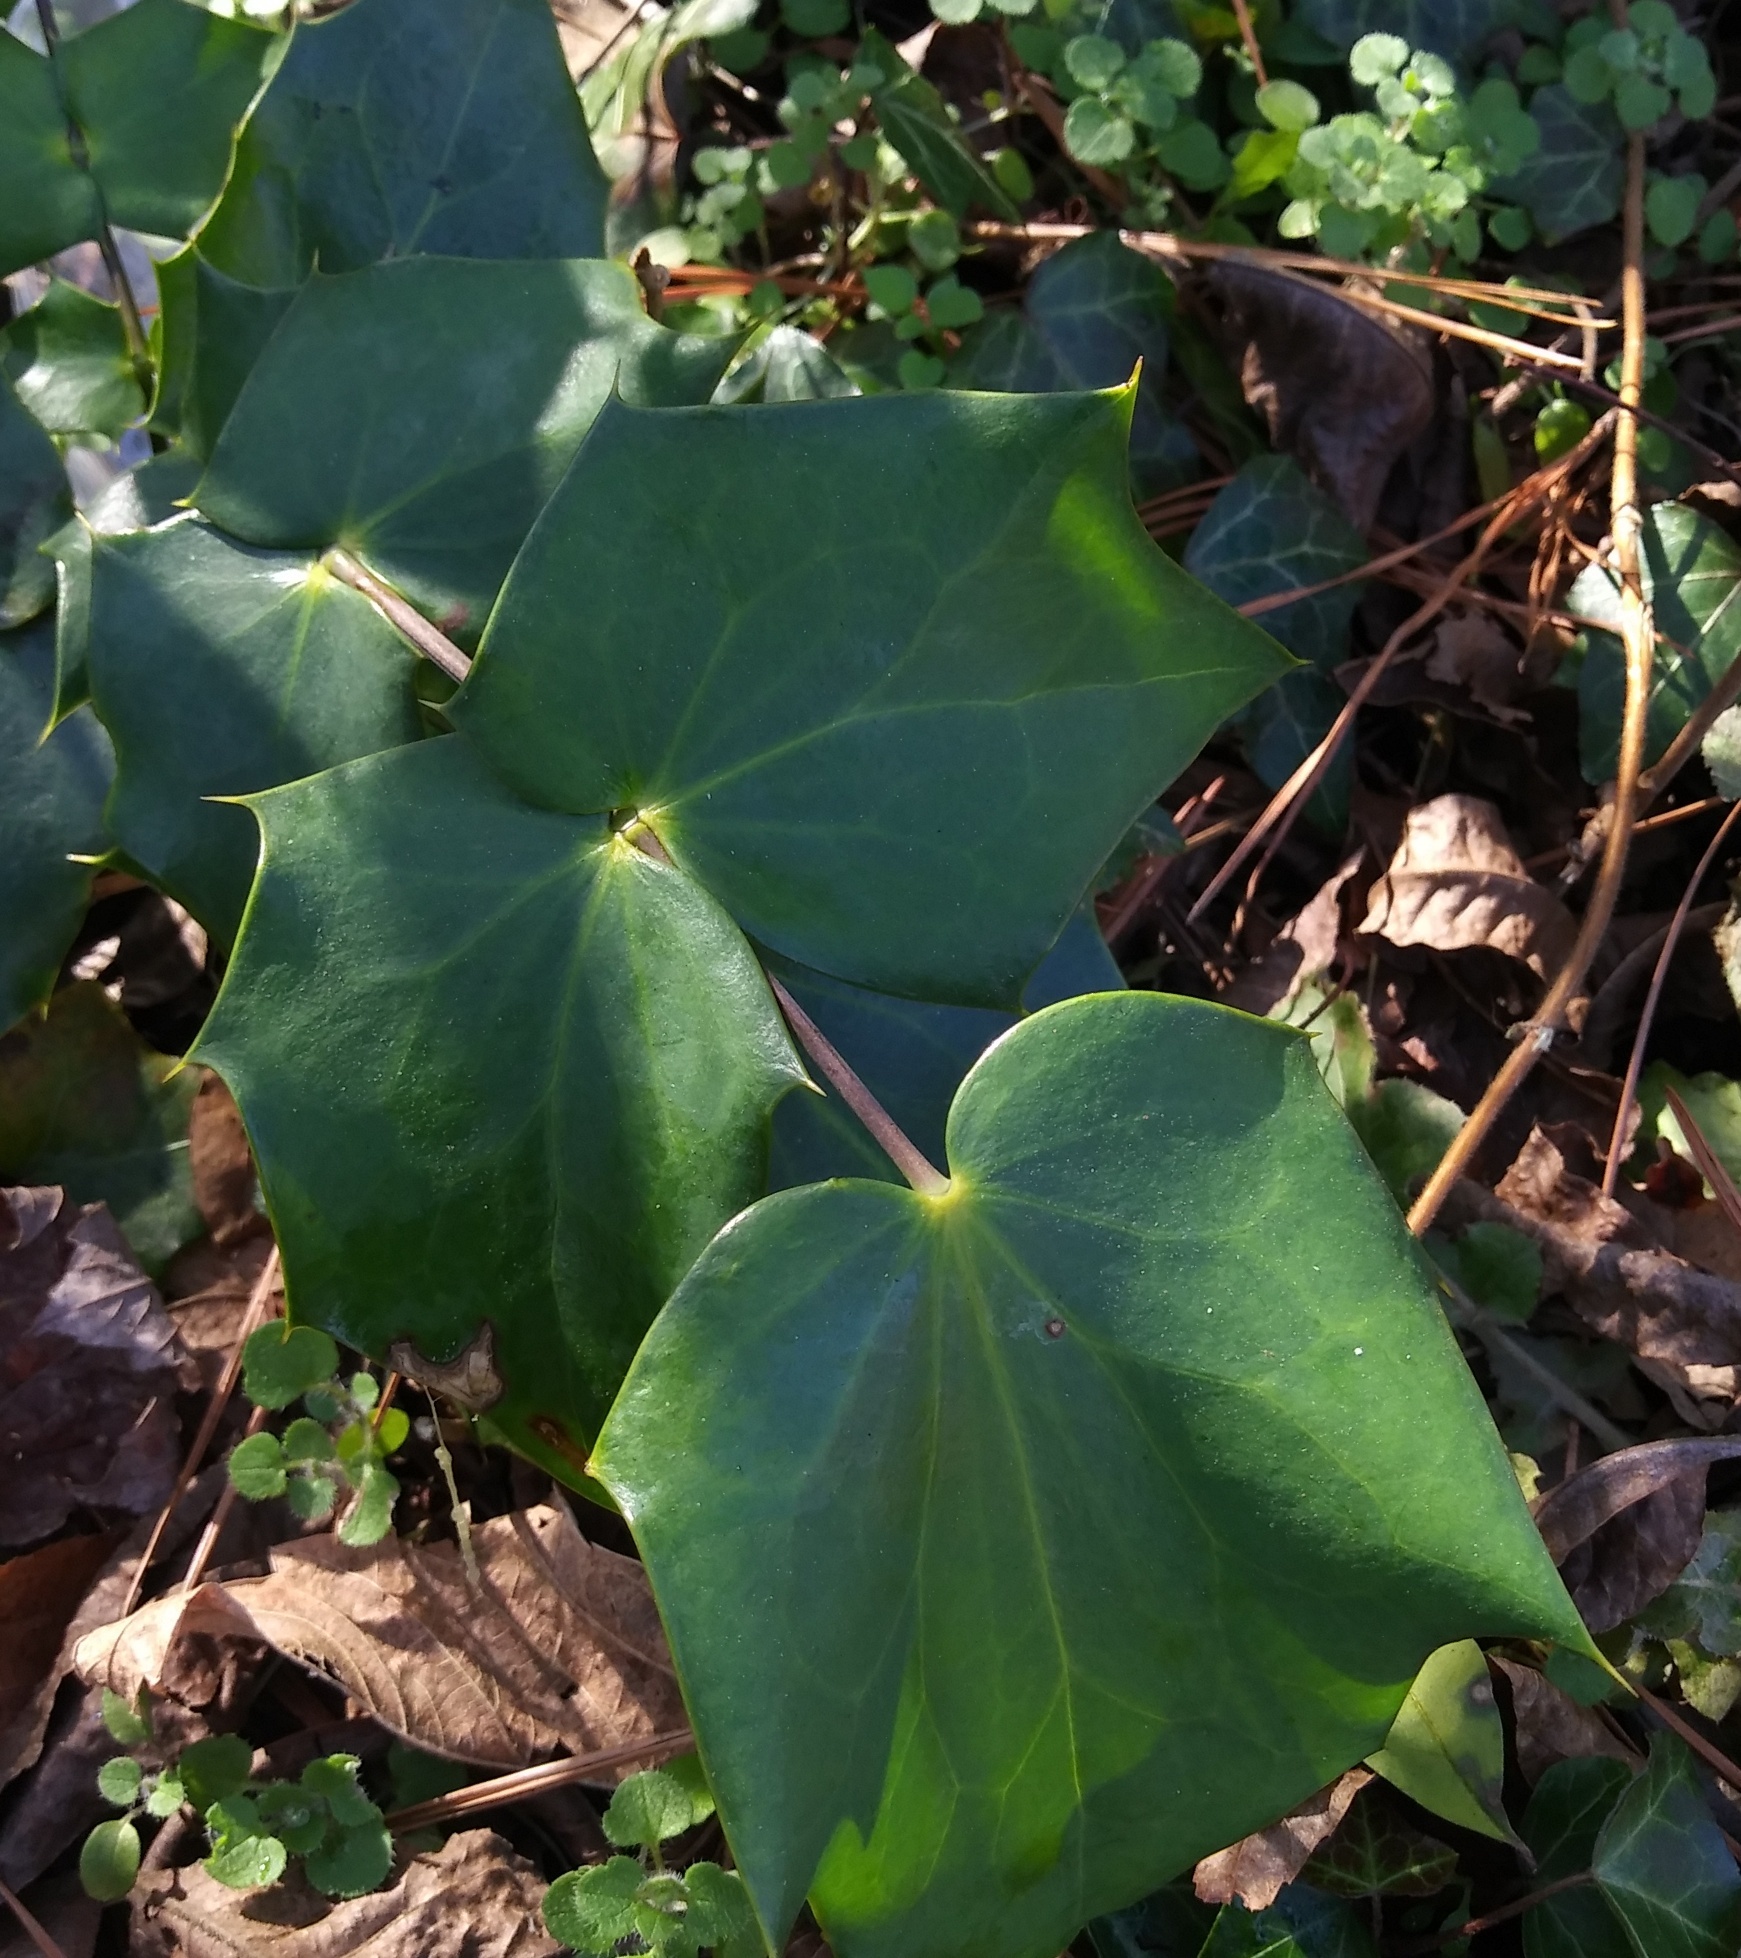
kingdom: Plantae
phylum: Tracheophyta
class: Magnoliopsida
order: Ranunculales
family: Berberidaceae
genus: Mahonia
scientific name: Mahonia bealei
